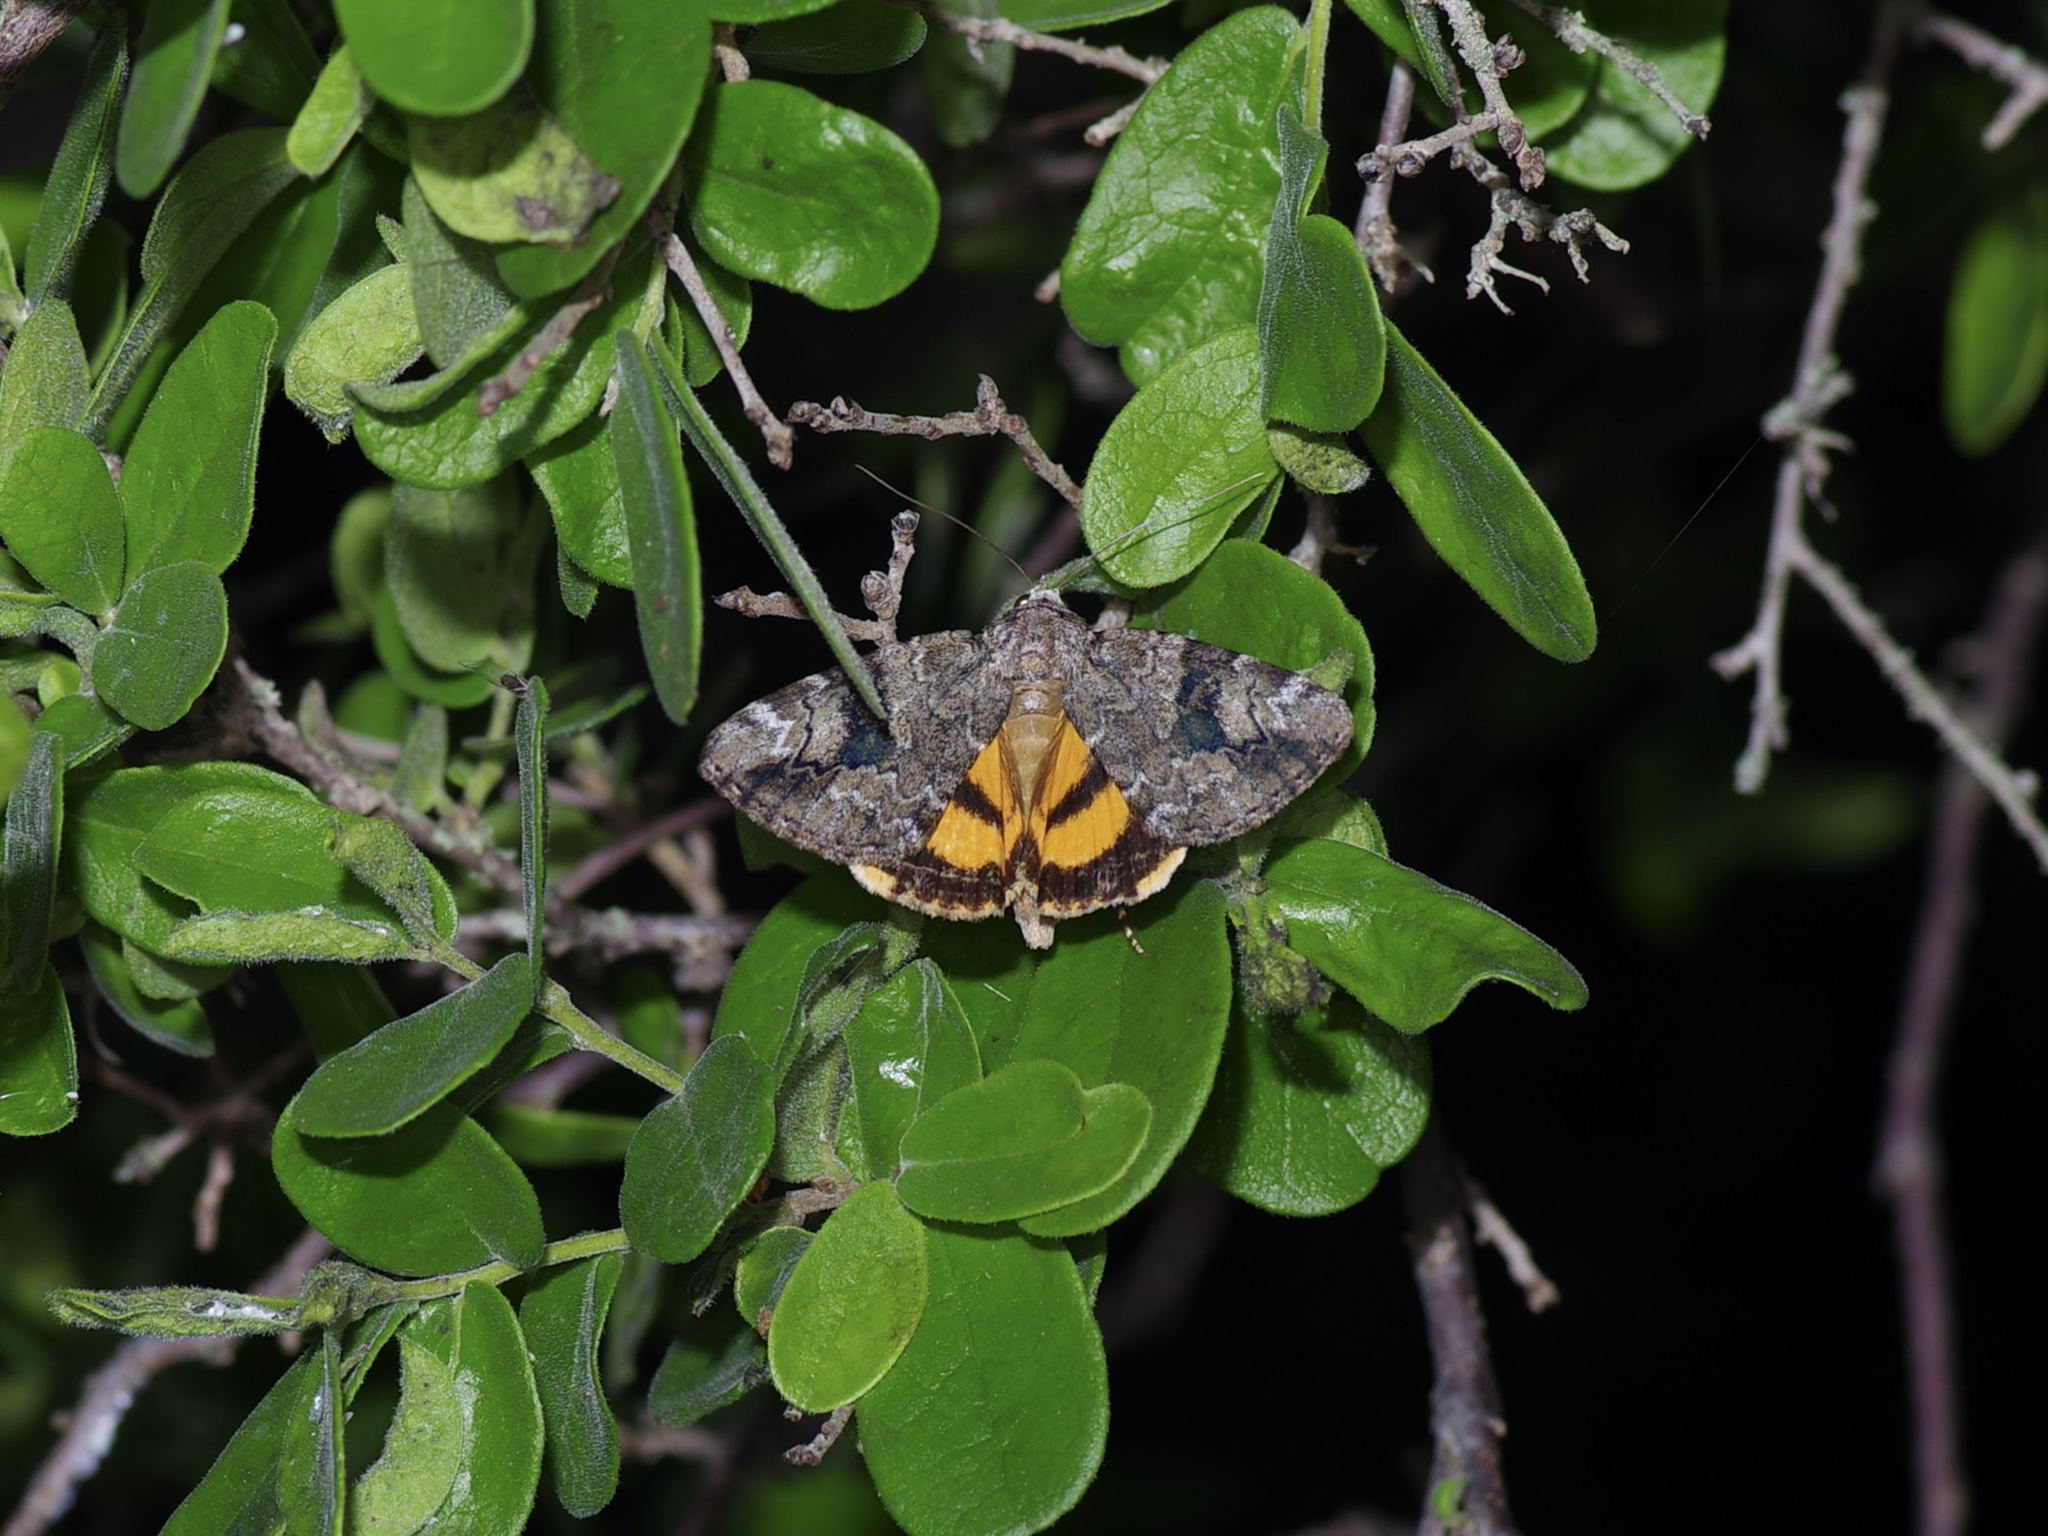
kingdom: Animalia
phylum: Arthropoda
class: Insecta
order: Lepidoptera
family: Erebidae
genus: Catocala
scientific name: Catocala micronympha
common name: Little nymph underwing
